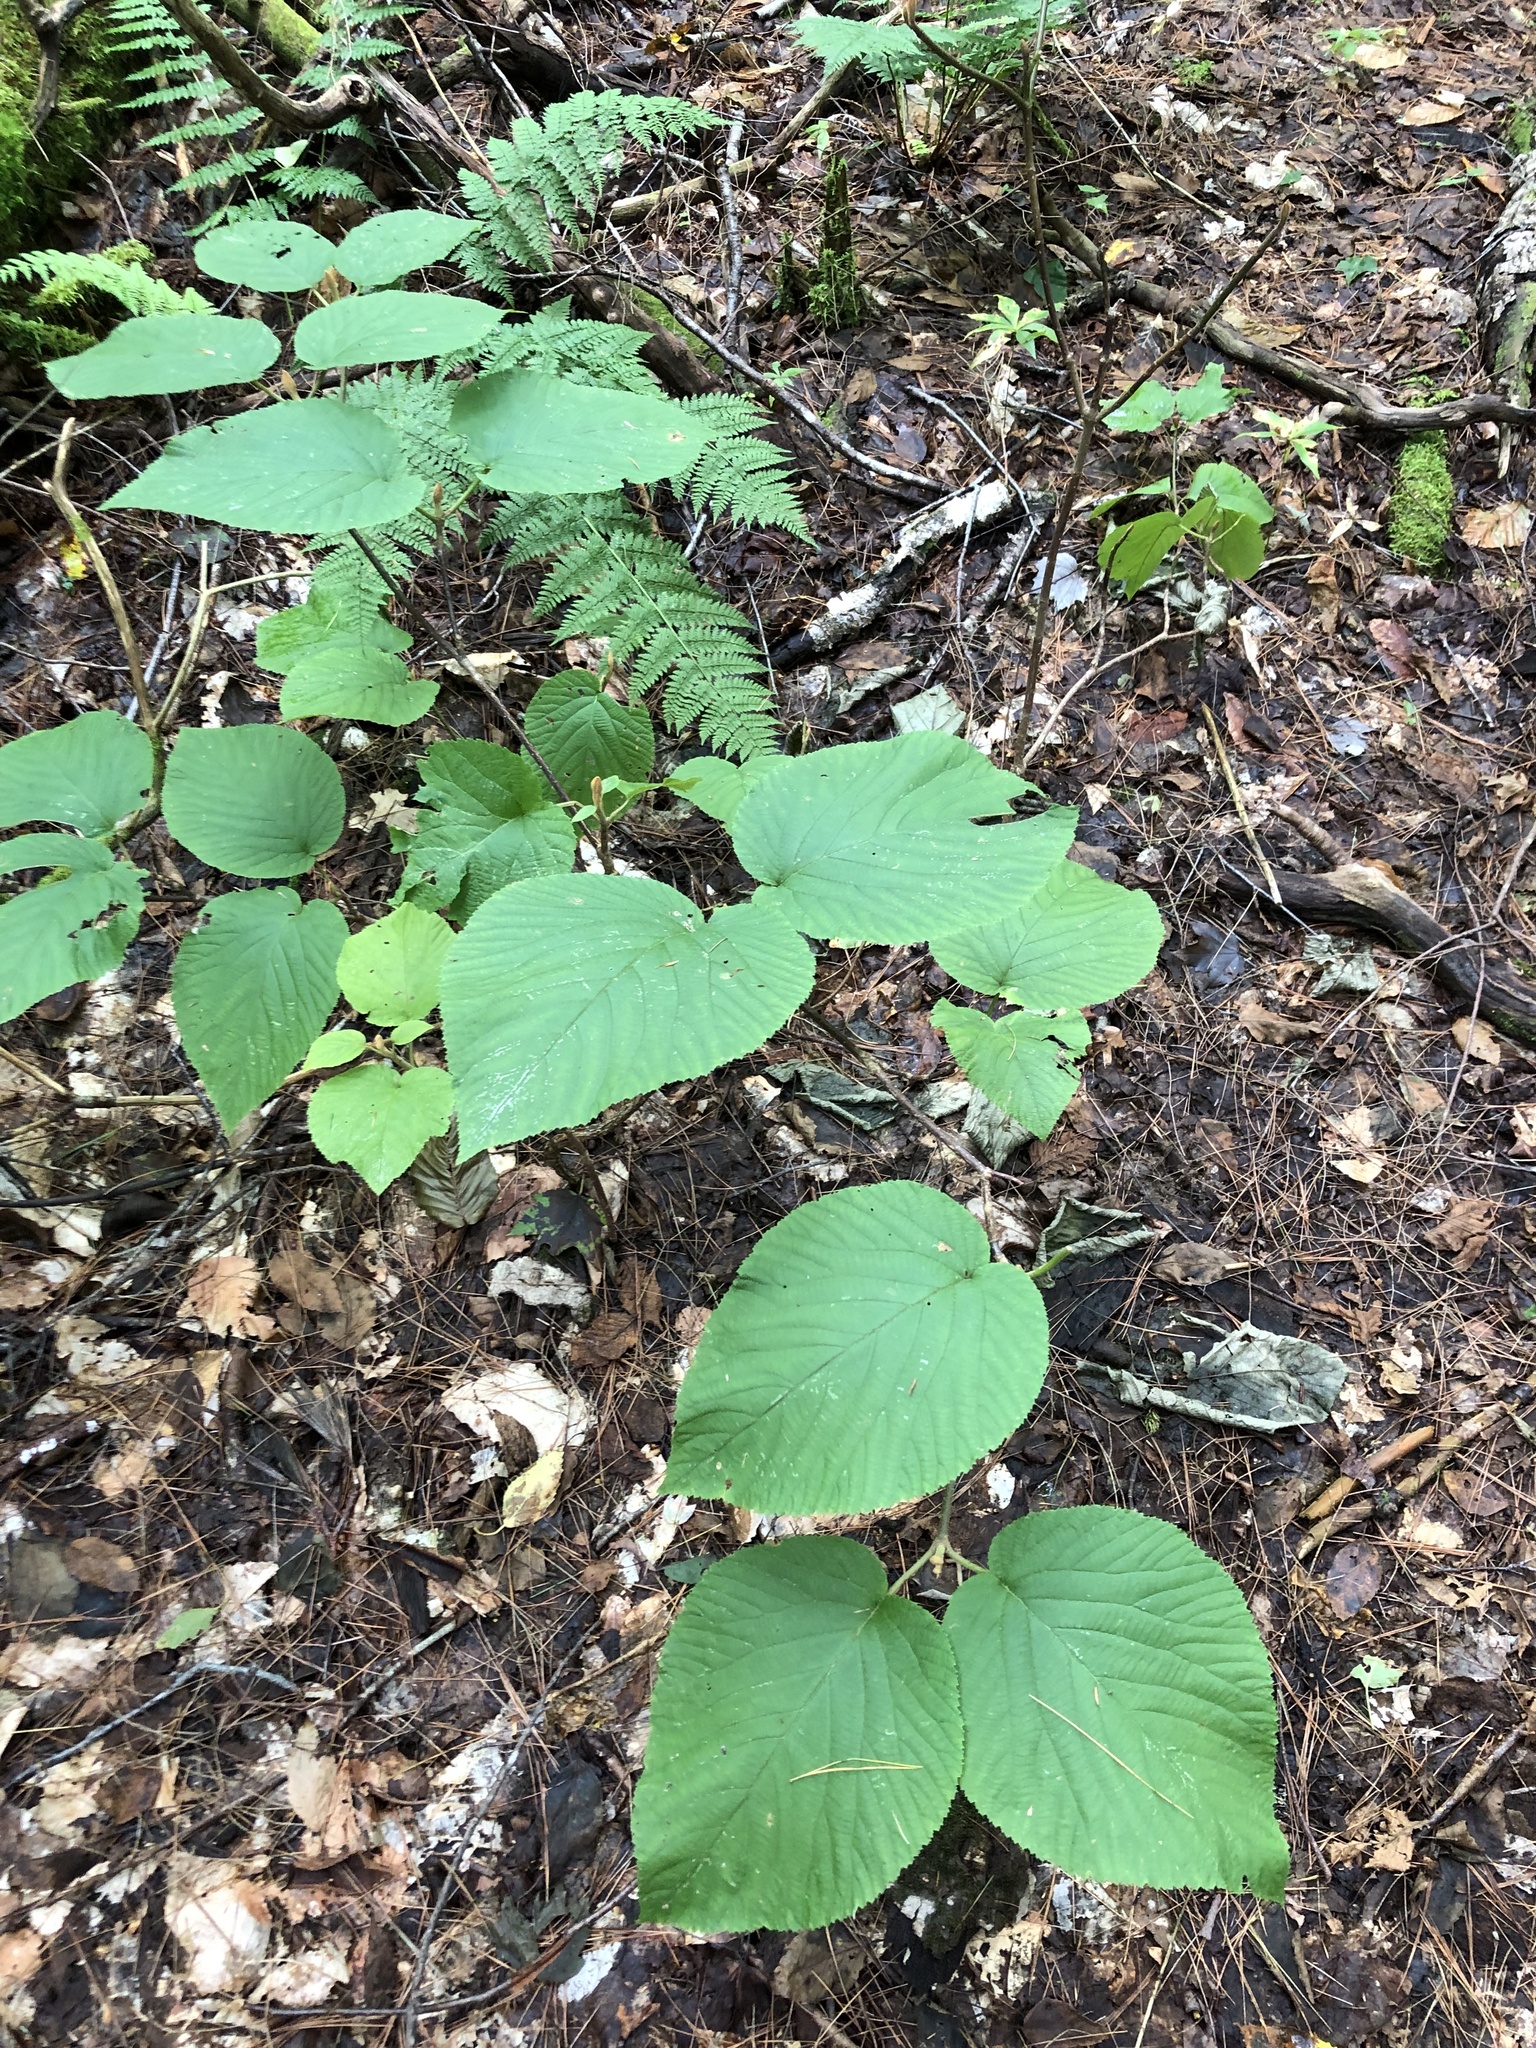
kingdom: Plantae
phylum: Tracheophyta
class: Magnoliopsida
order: Dipsacales
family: Viburnaceae
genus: Viburnum
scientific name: Viburnum lantanoides
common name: Hobblebush
